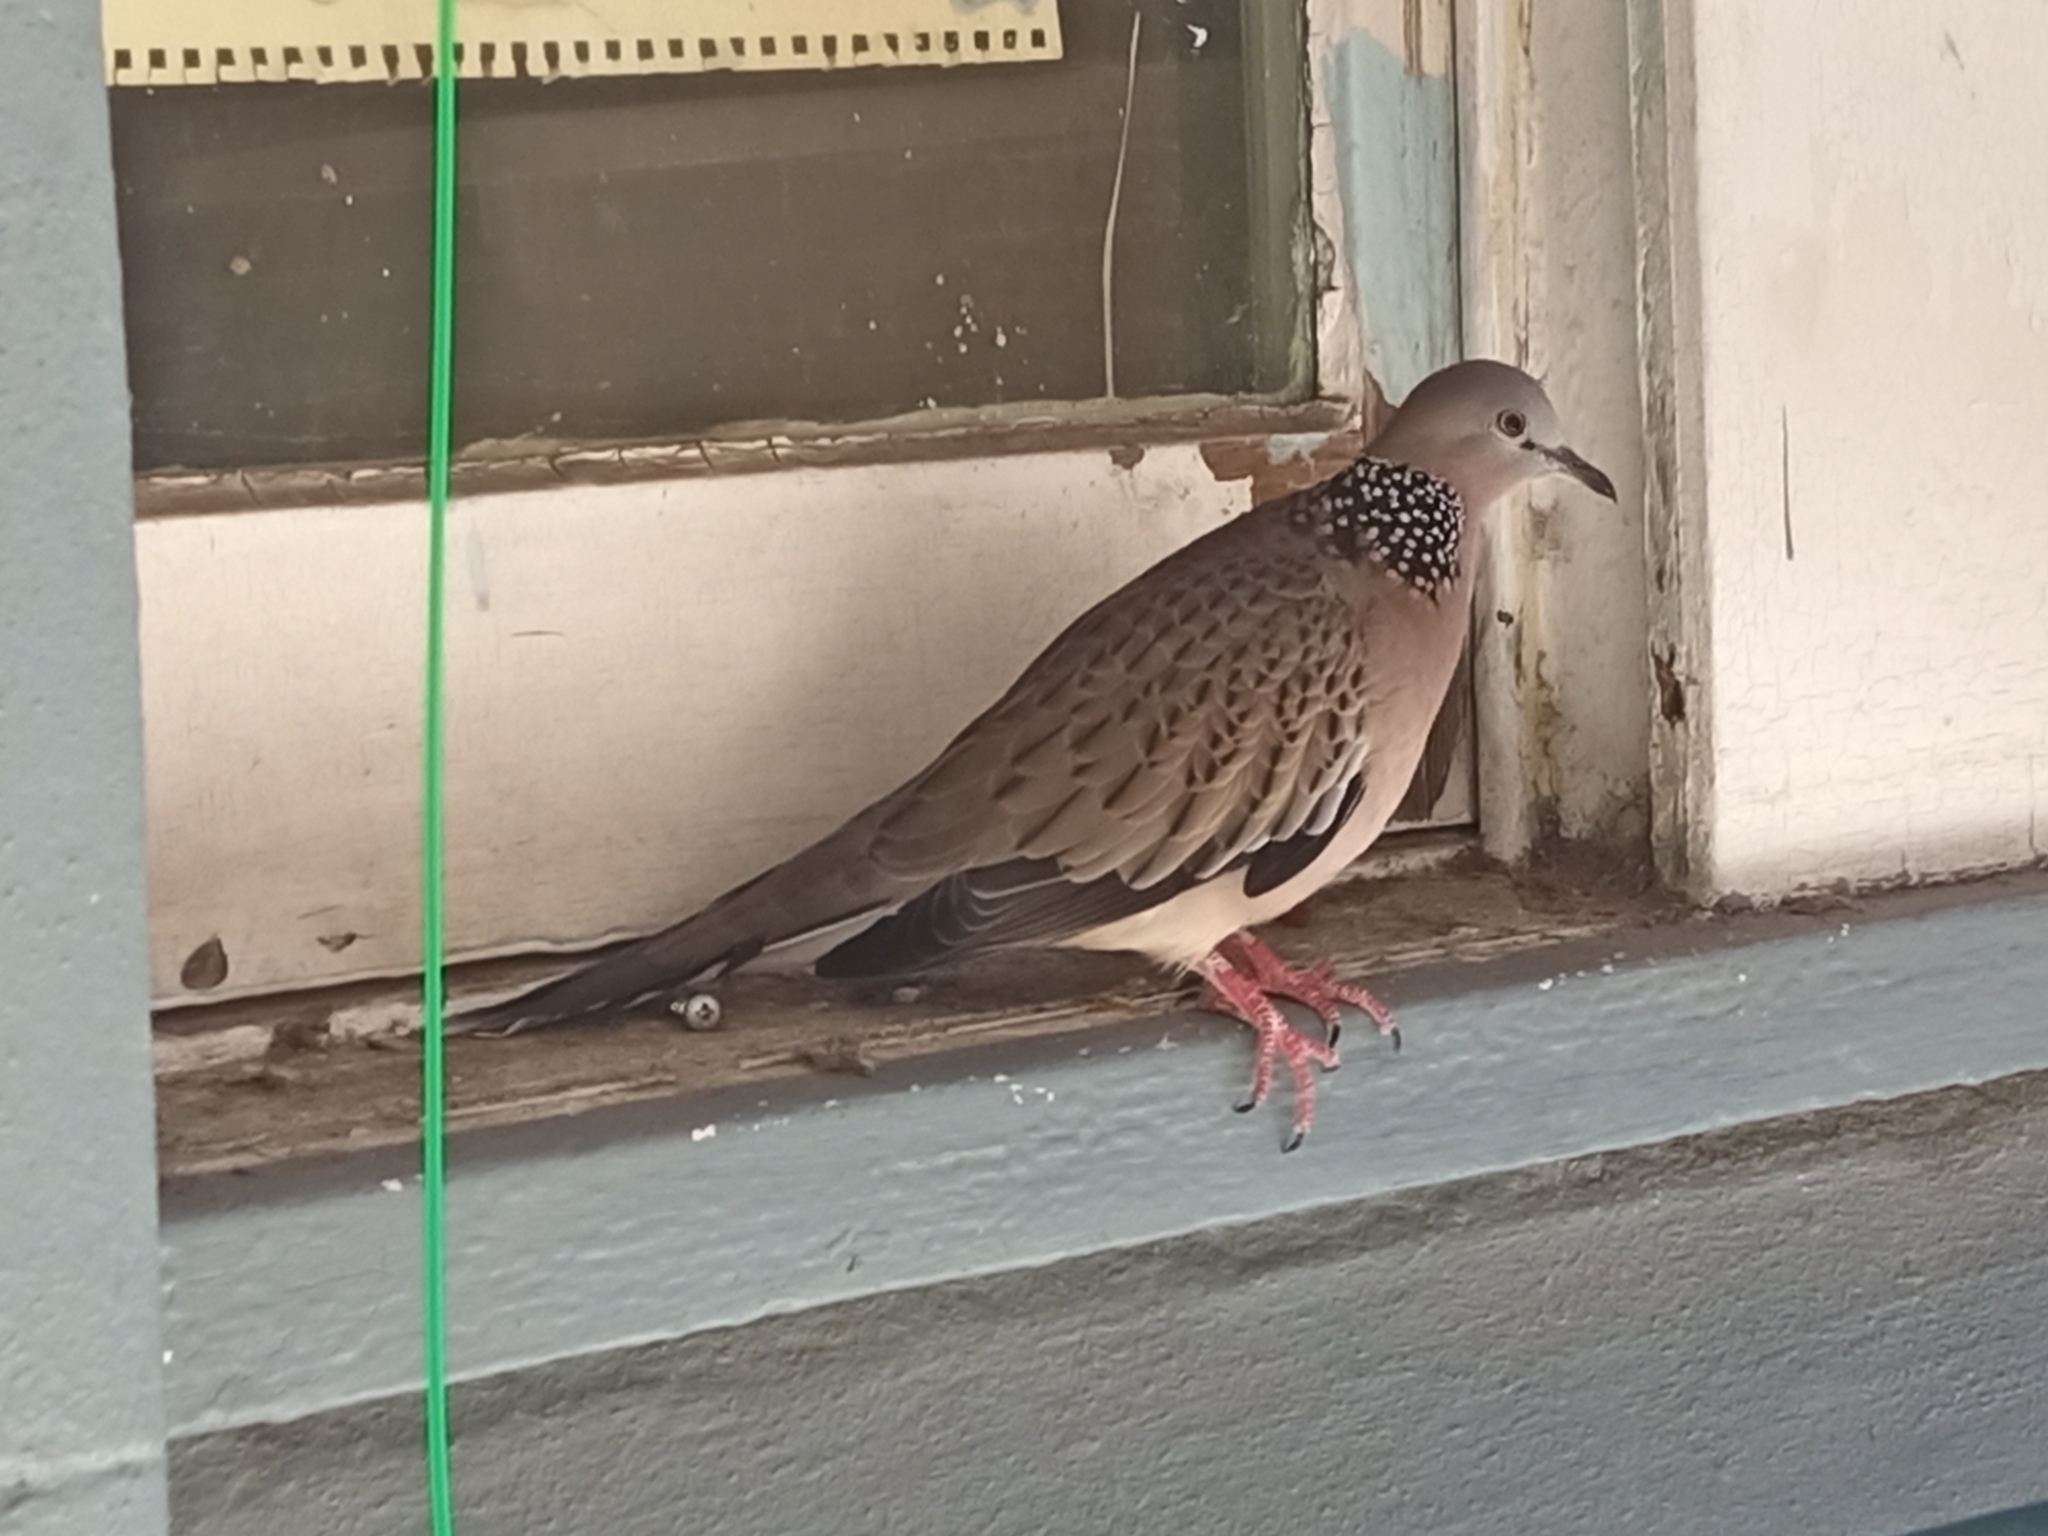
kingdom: Animalia
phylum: Chordata
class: Aves
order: Columbiformes
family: Columbidae
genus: Spilopelia
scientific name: Spilopelia chinensis
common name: Spotted dove
